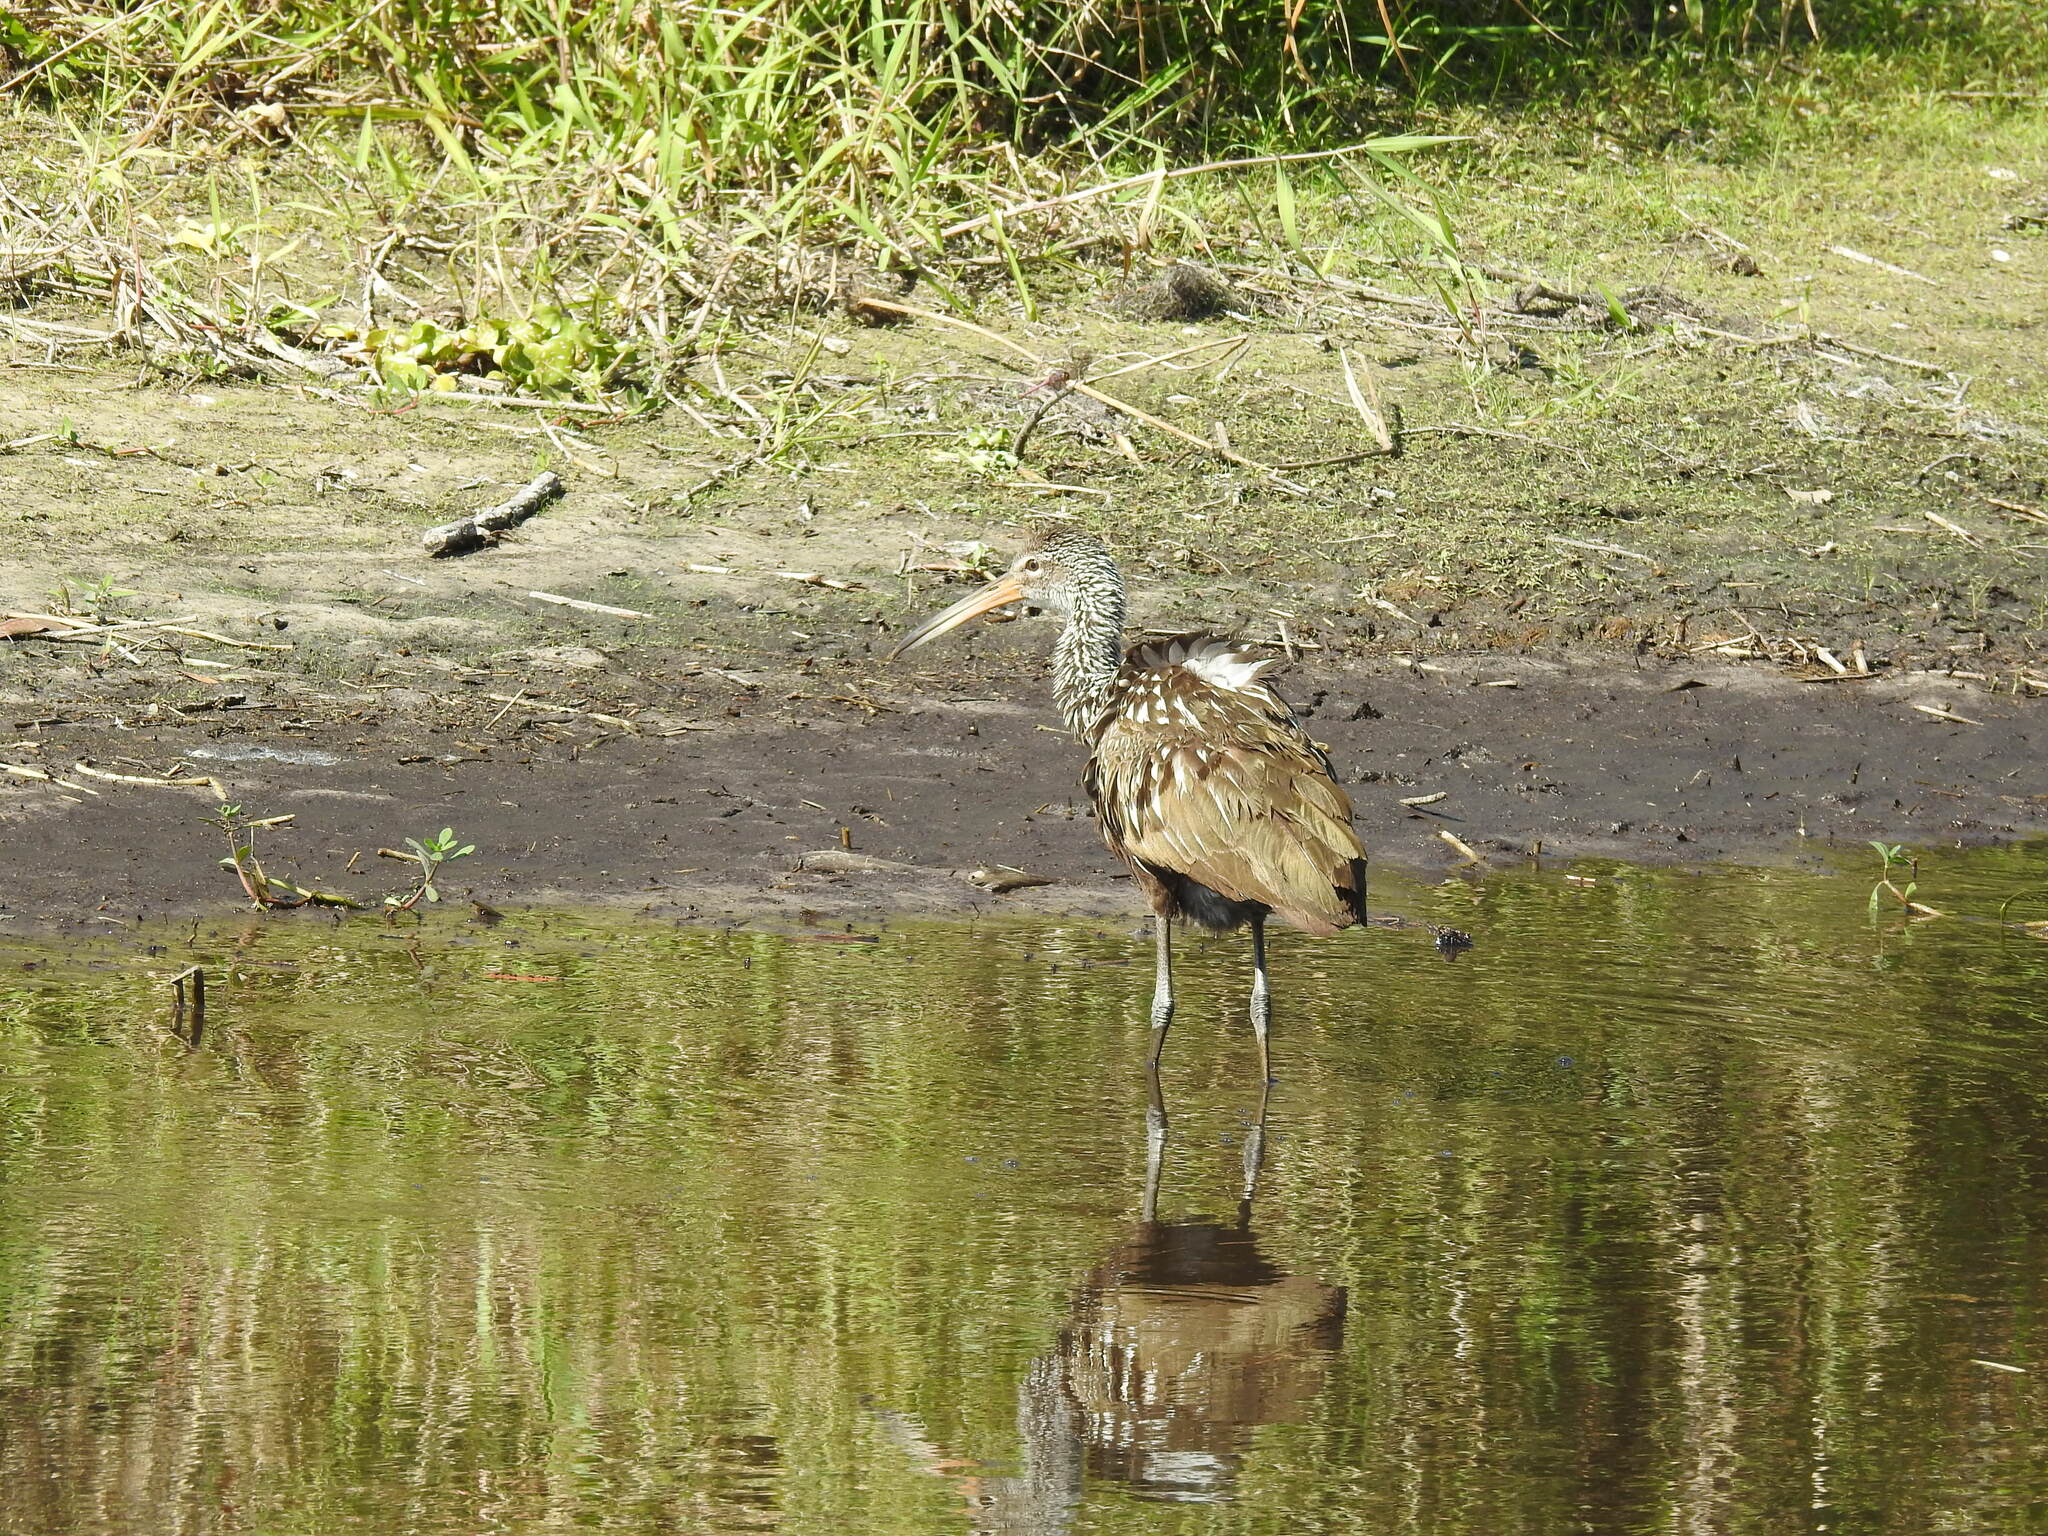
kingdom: Animalia
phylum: Chordata
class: Aves
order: Gruiformes
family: Aramidae
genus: Aramus
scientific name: Aramus guarauna
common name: Limpkin
